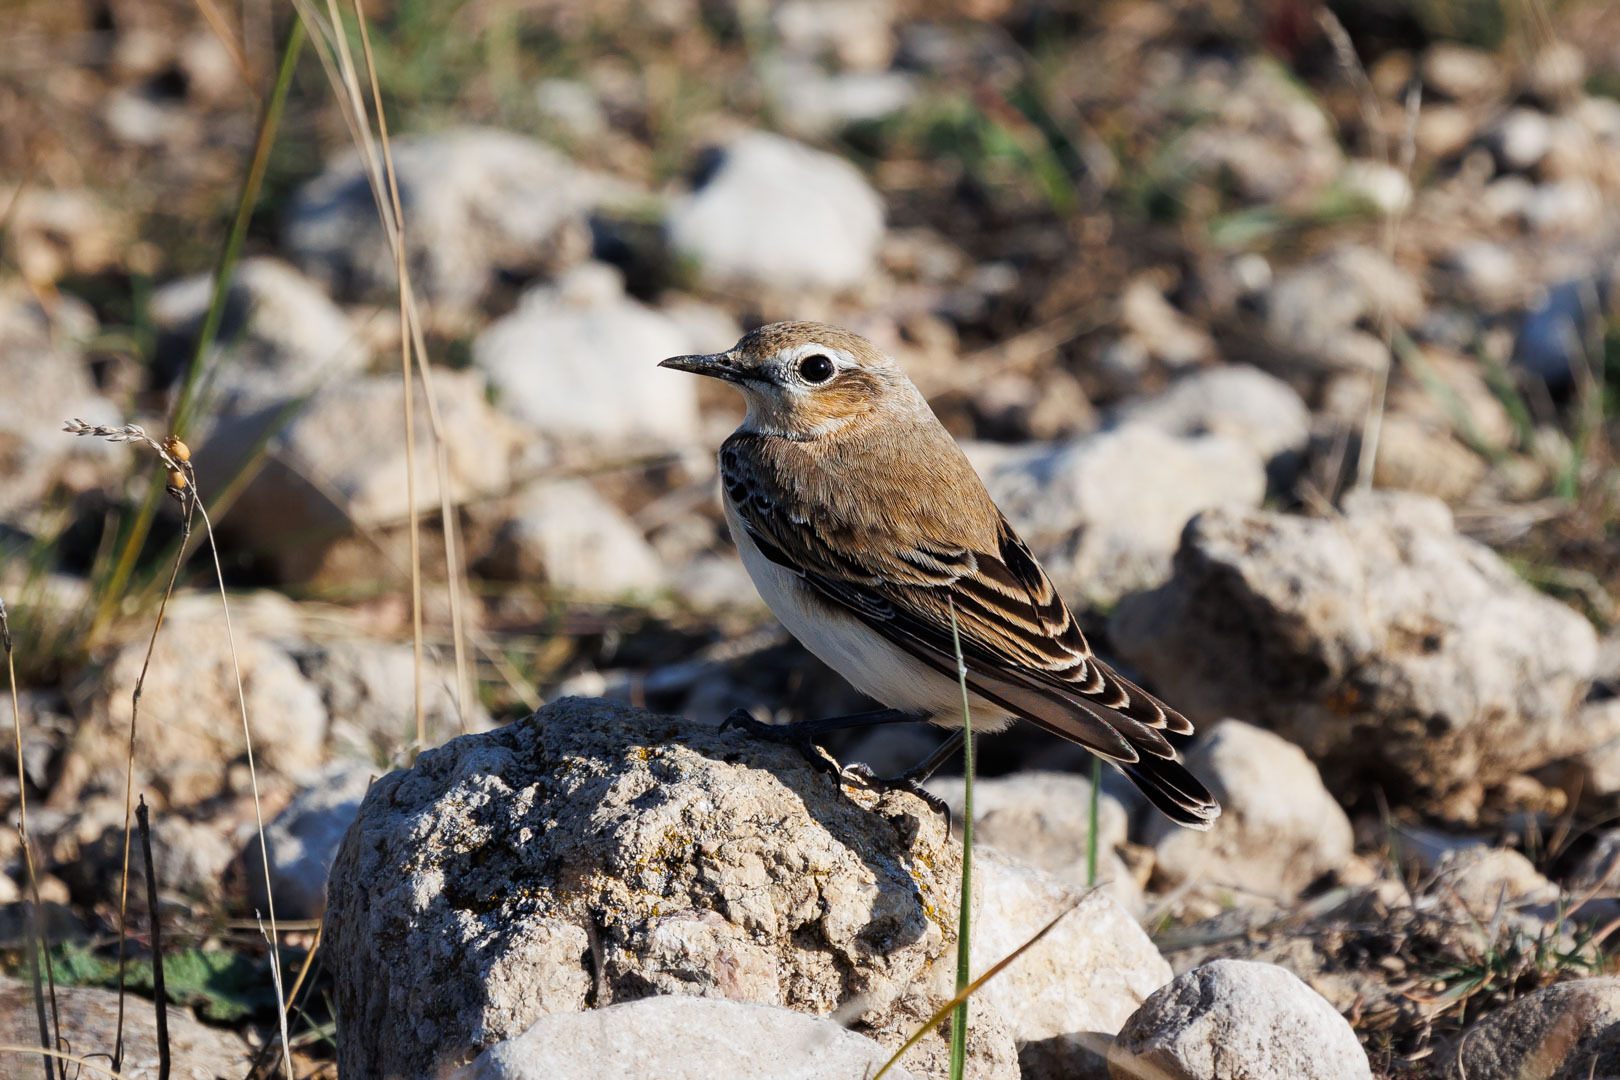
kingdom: Animalia
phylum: Chordata
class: Aves
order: Passeriformes
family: Muscicapidae
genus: Oenanthe
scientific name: Oenanthe oenanthe
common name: Northern wheatear
